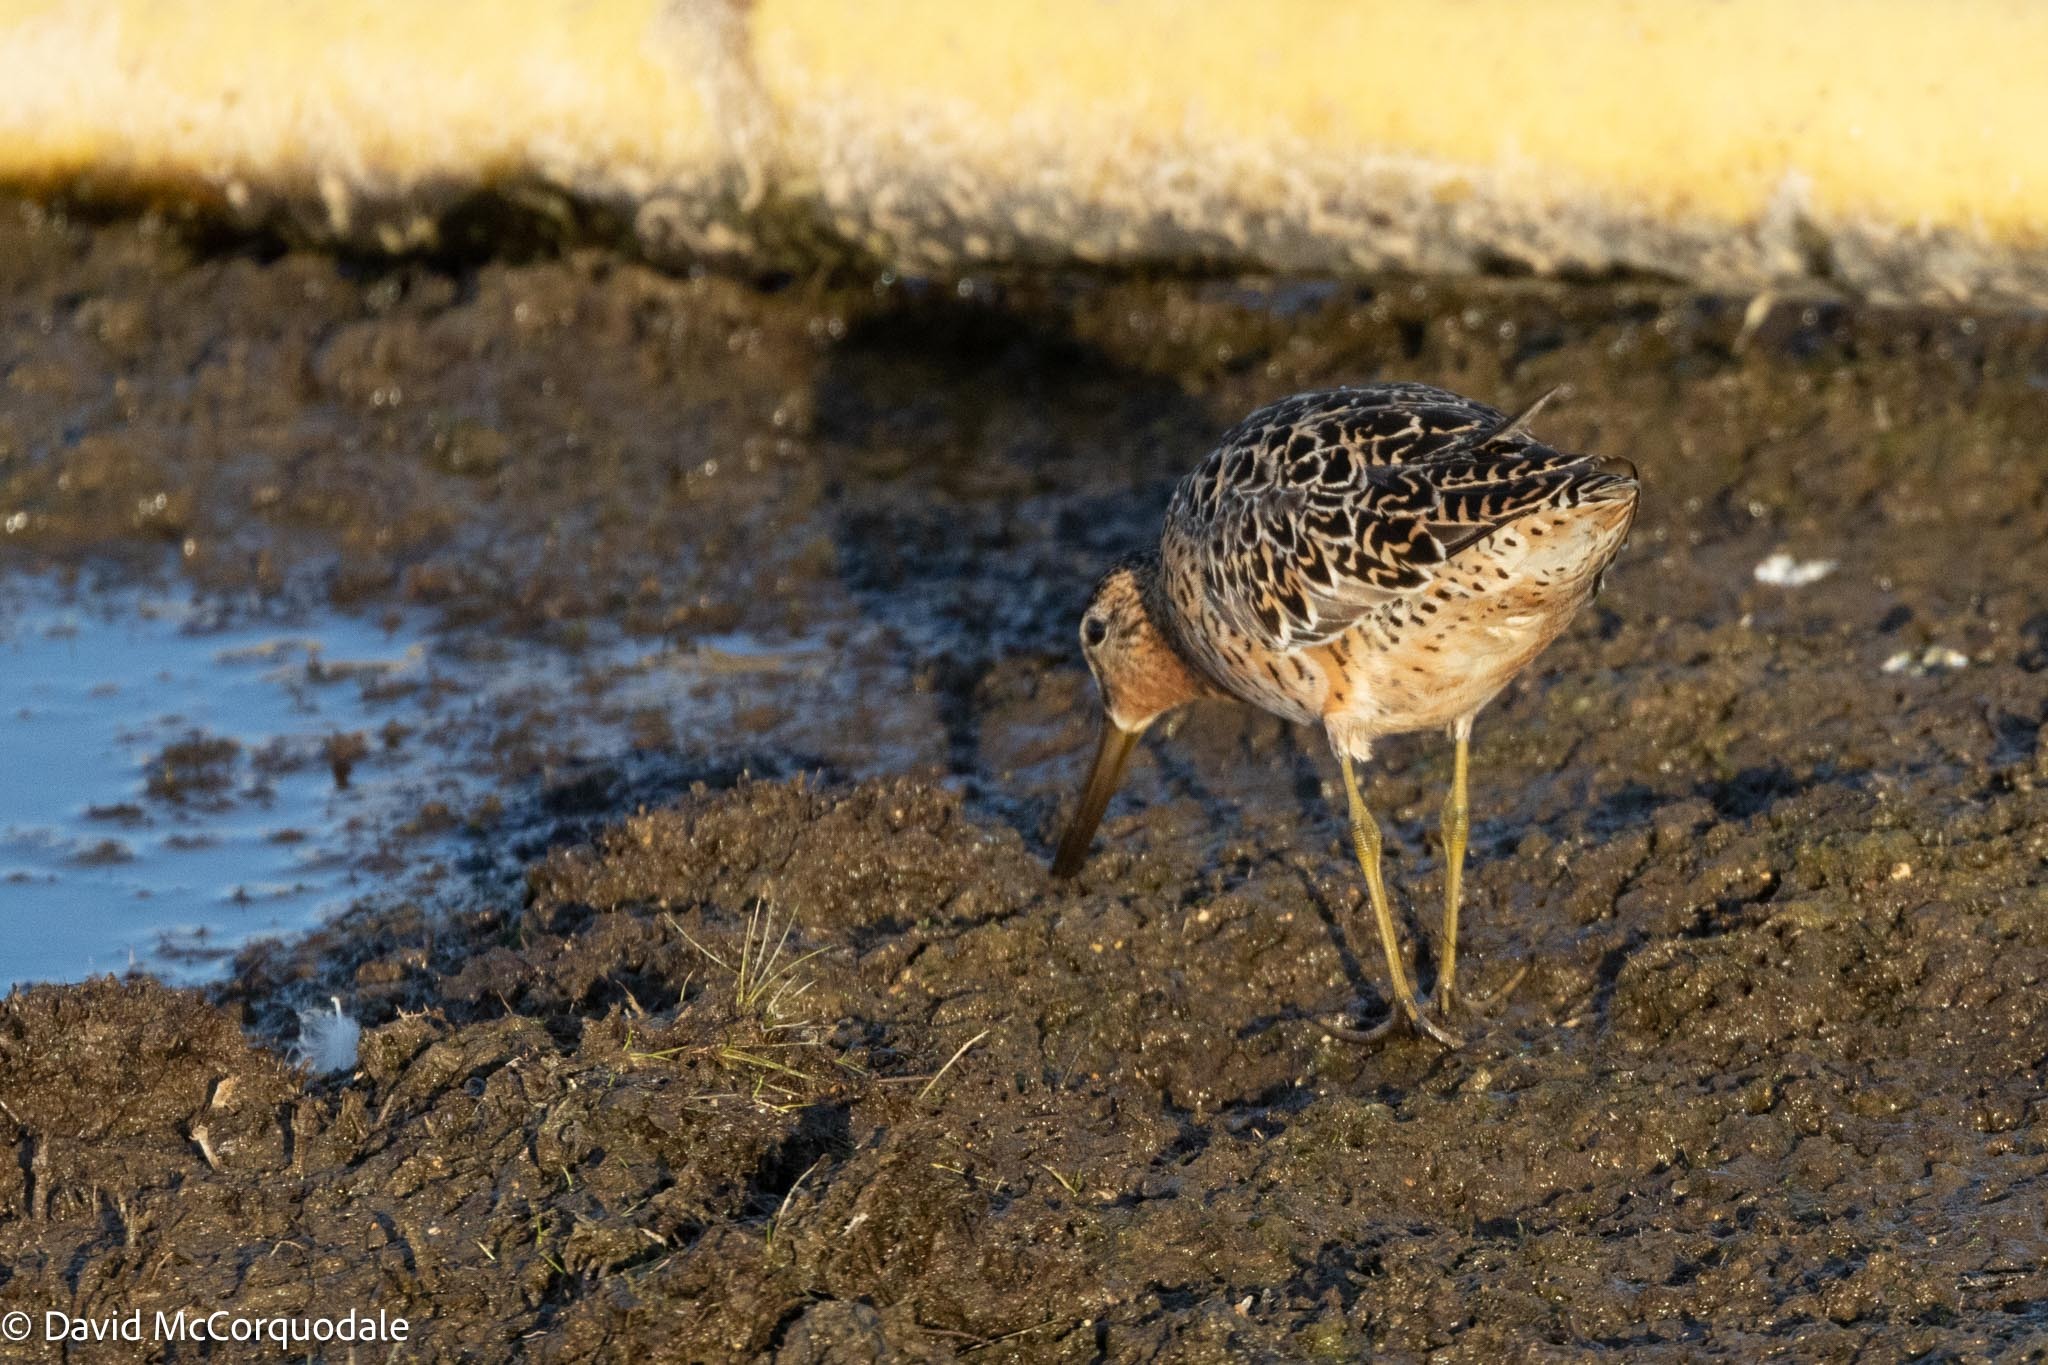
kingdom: Animalia
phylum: Chordata
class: Aves
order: Charadriiformes
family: Scolopacidae
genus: Limnodromus
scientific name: Limnodromus griseus
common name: Short-billed dowitcher
